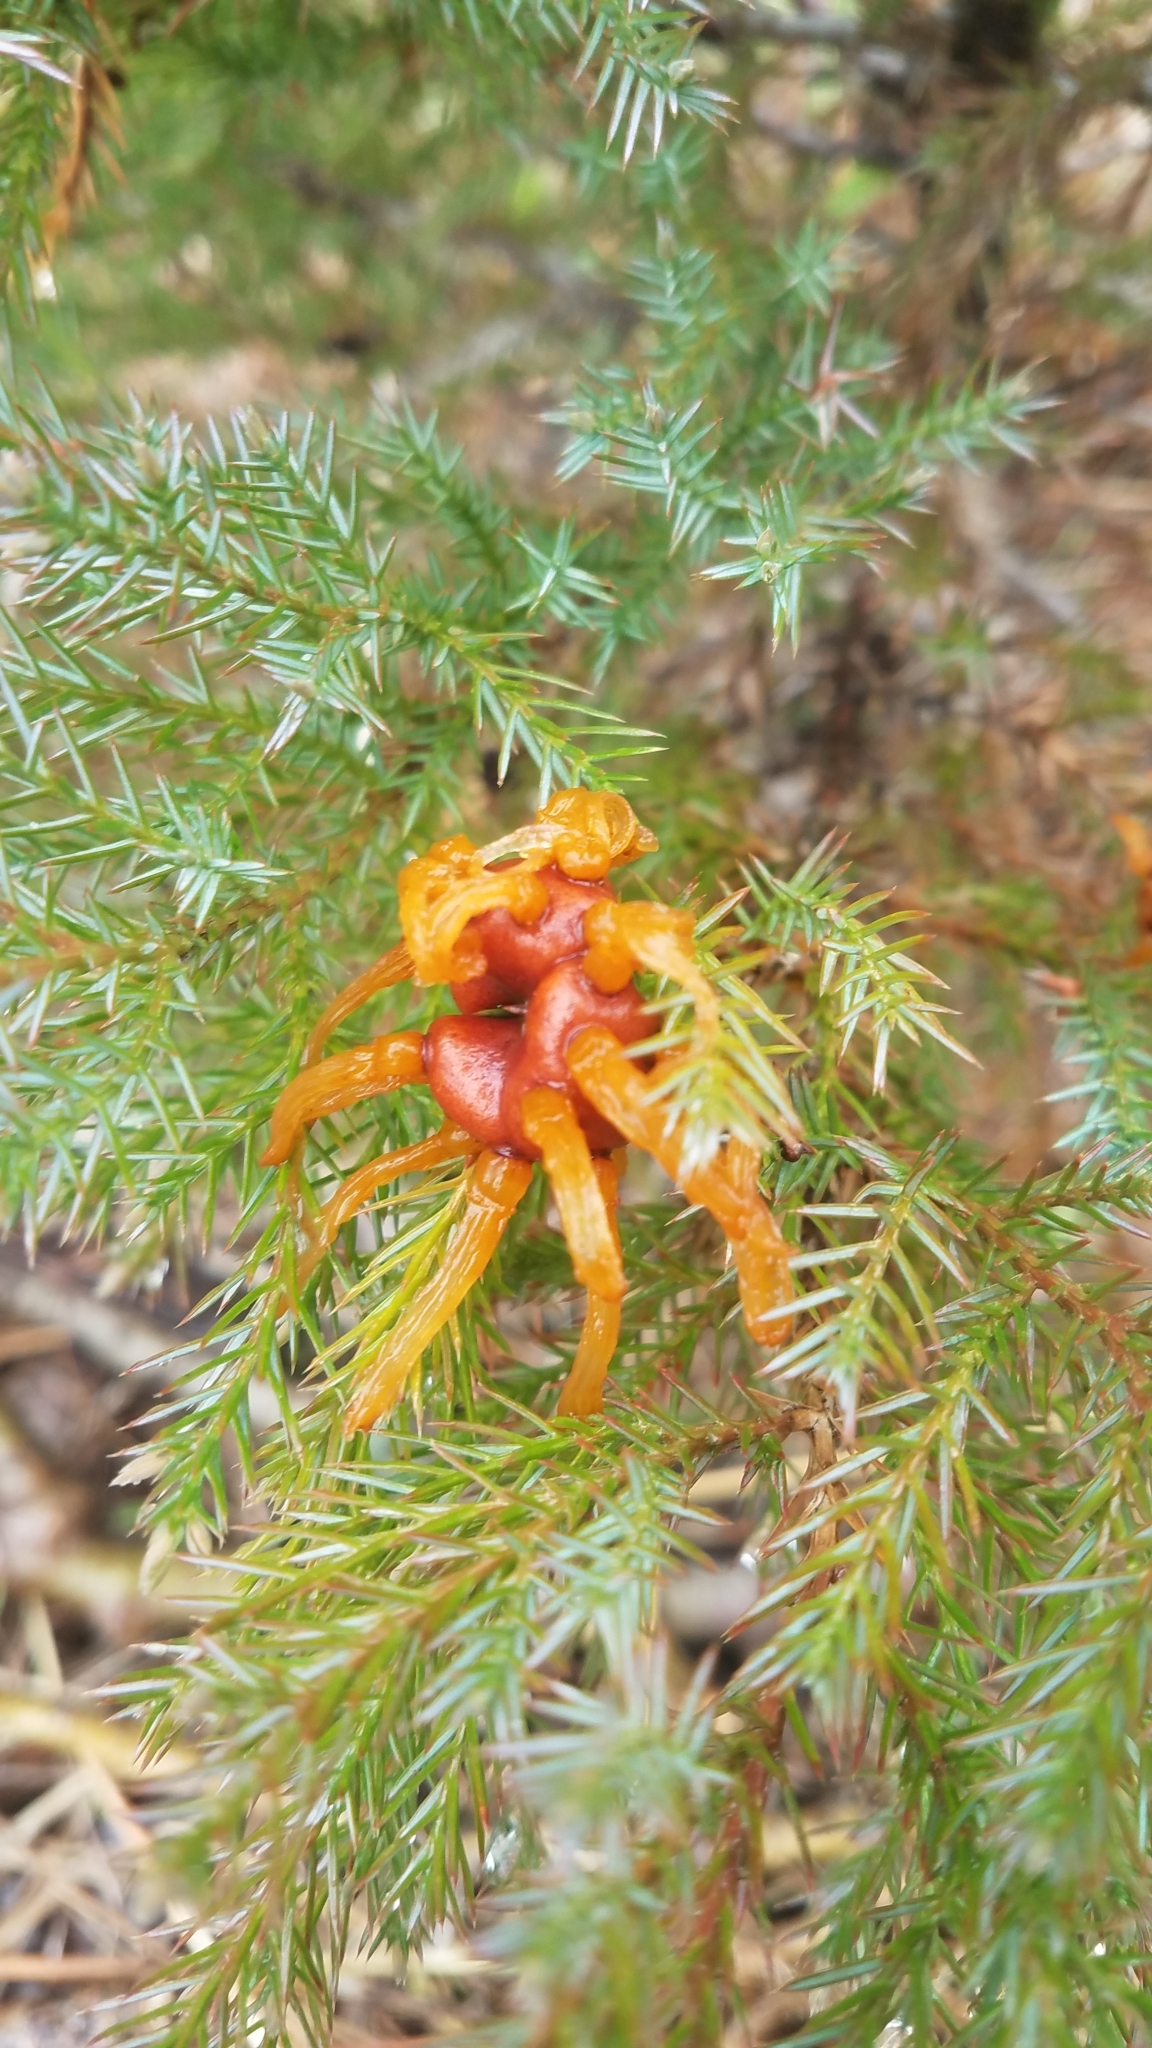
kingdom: Fungi
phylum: Basidiomycota
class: Pucciniomycetes
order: Pucciniales
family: Gymnosporangiaceae
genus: Gymnosporangium
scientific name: Gymnosporangium juniperi-virginianae
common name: Juniper-apple rust
